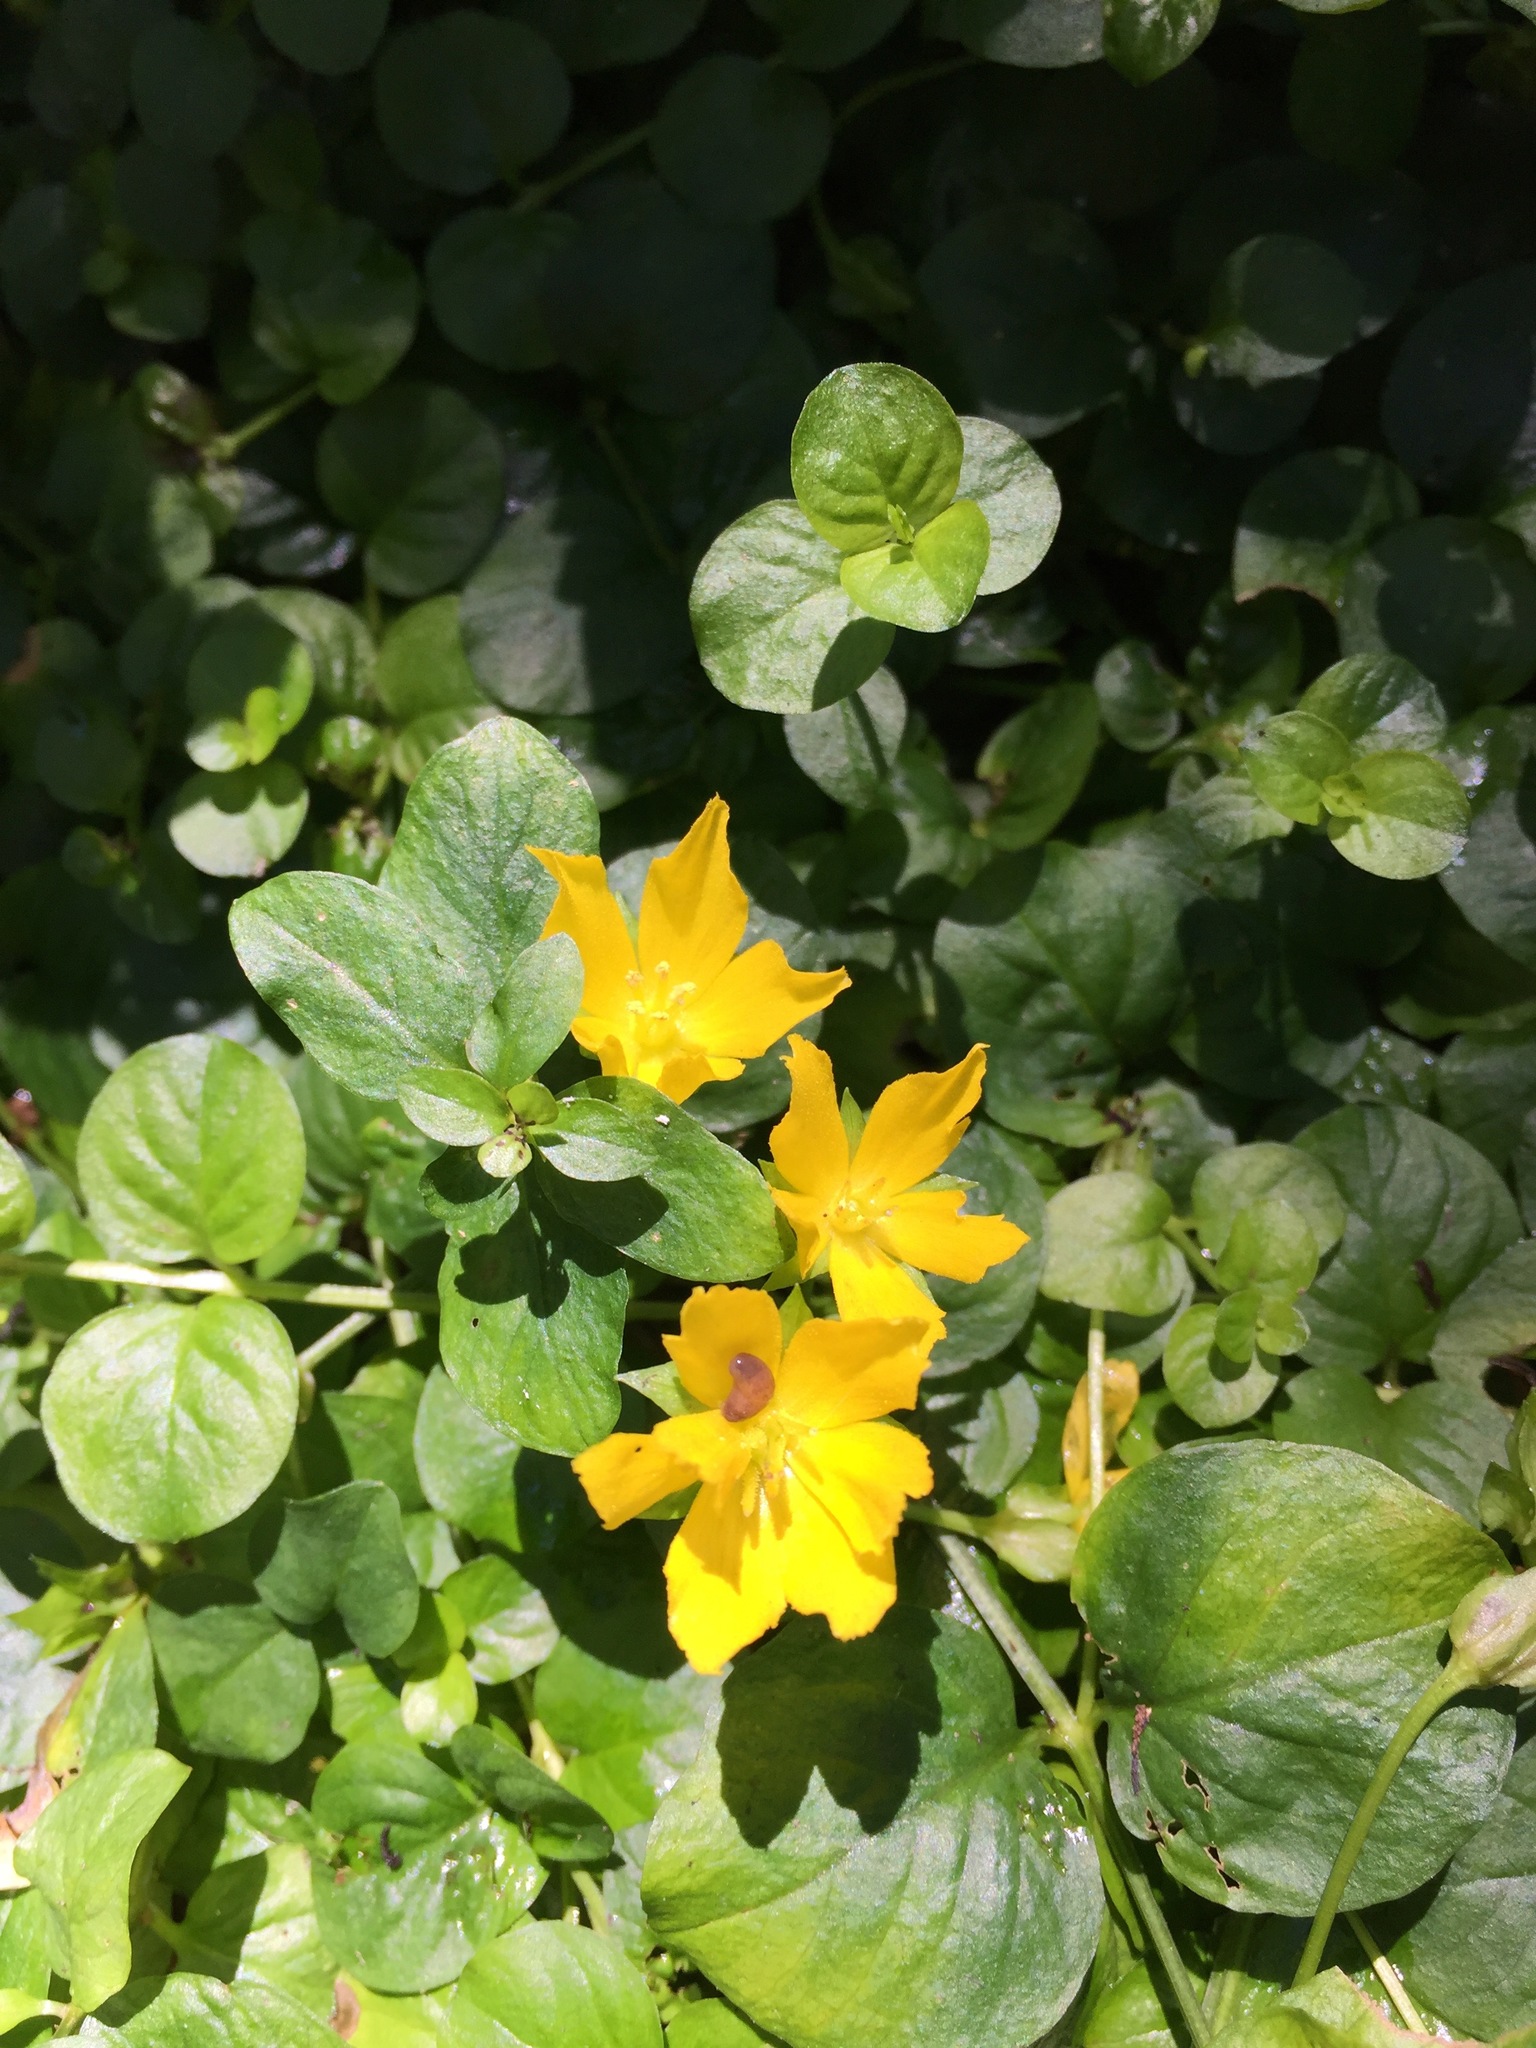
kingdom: Plantae
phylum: Tracheophyta
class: Magnoliopsida
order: Ericales
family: Primulaceae
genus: Lysimachia
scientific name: Lysimachia nummularia
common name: Moneywort
